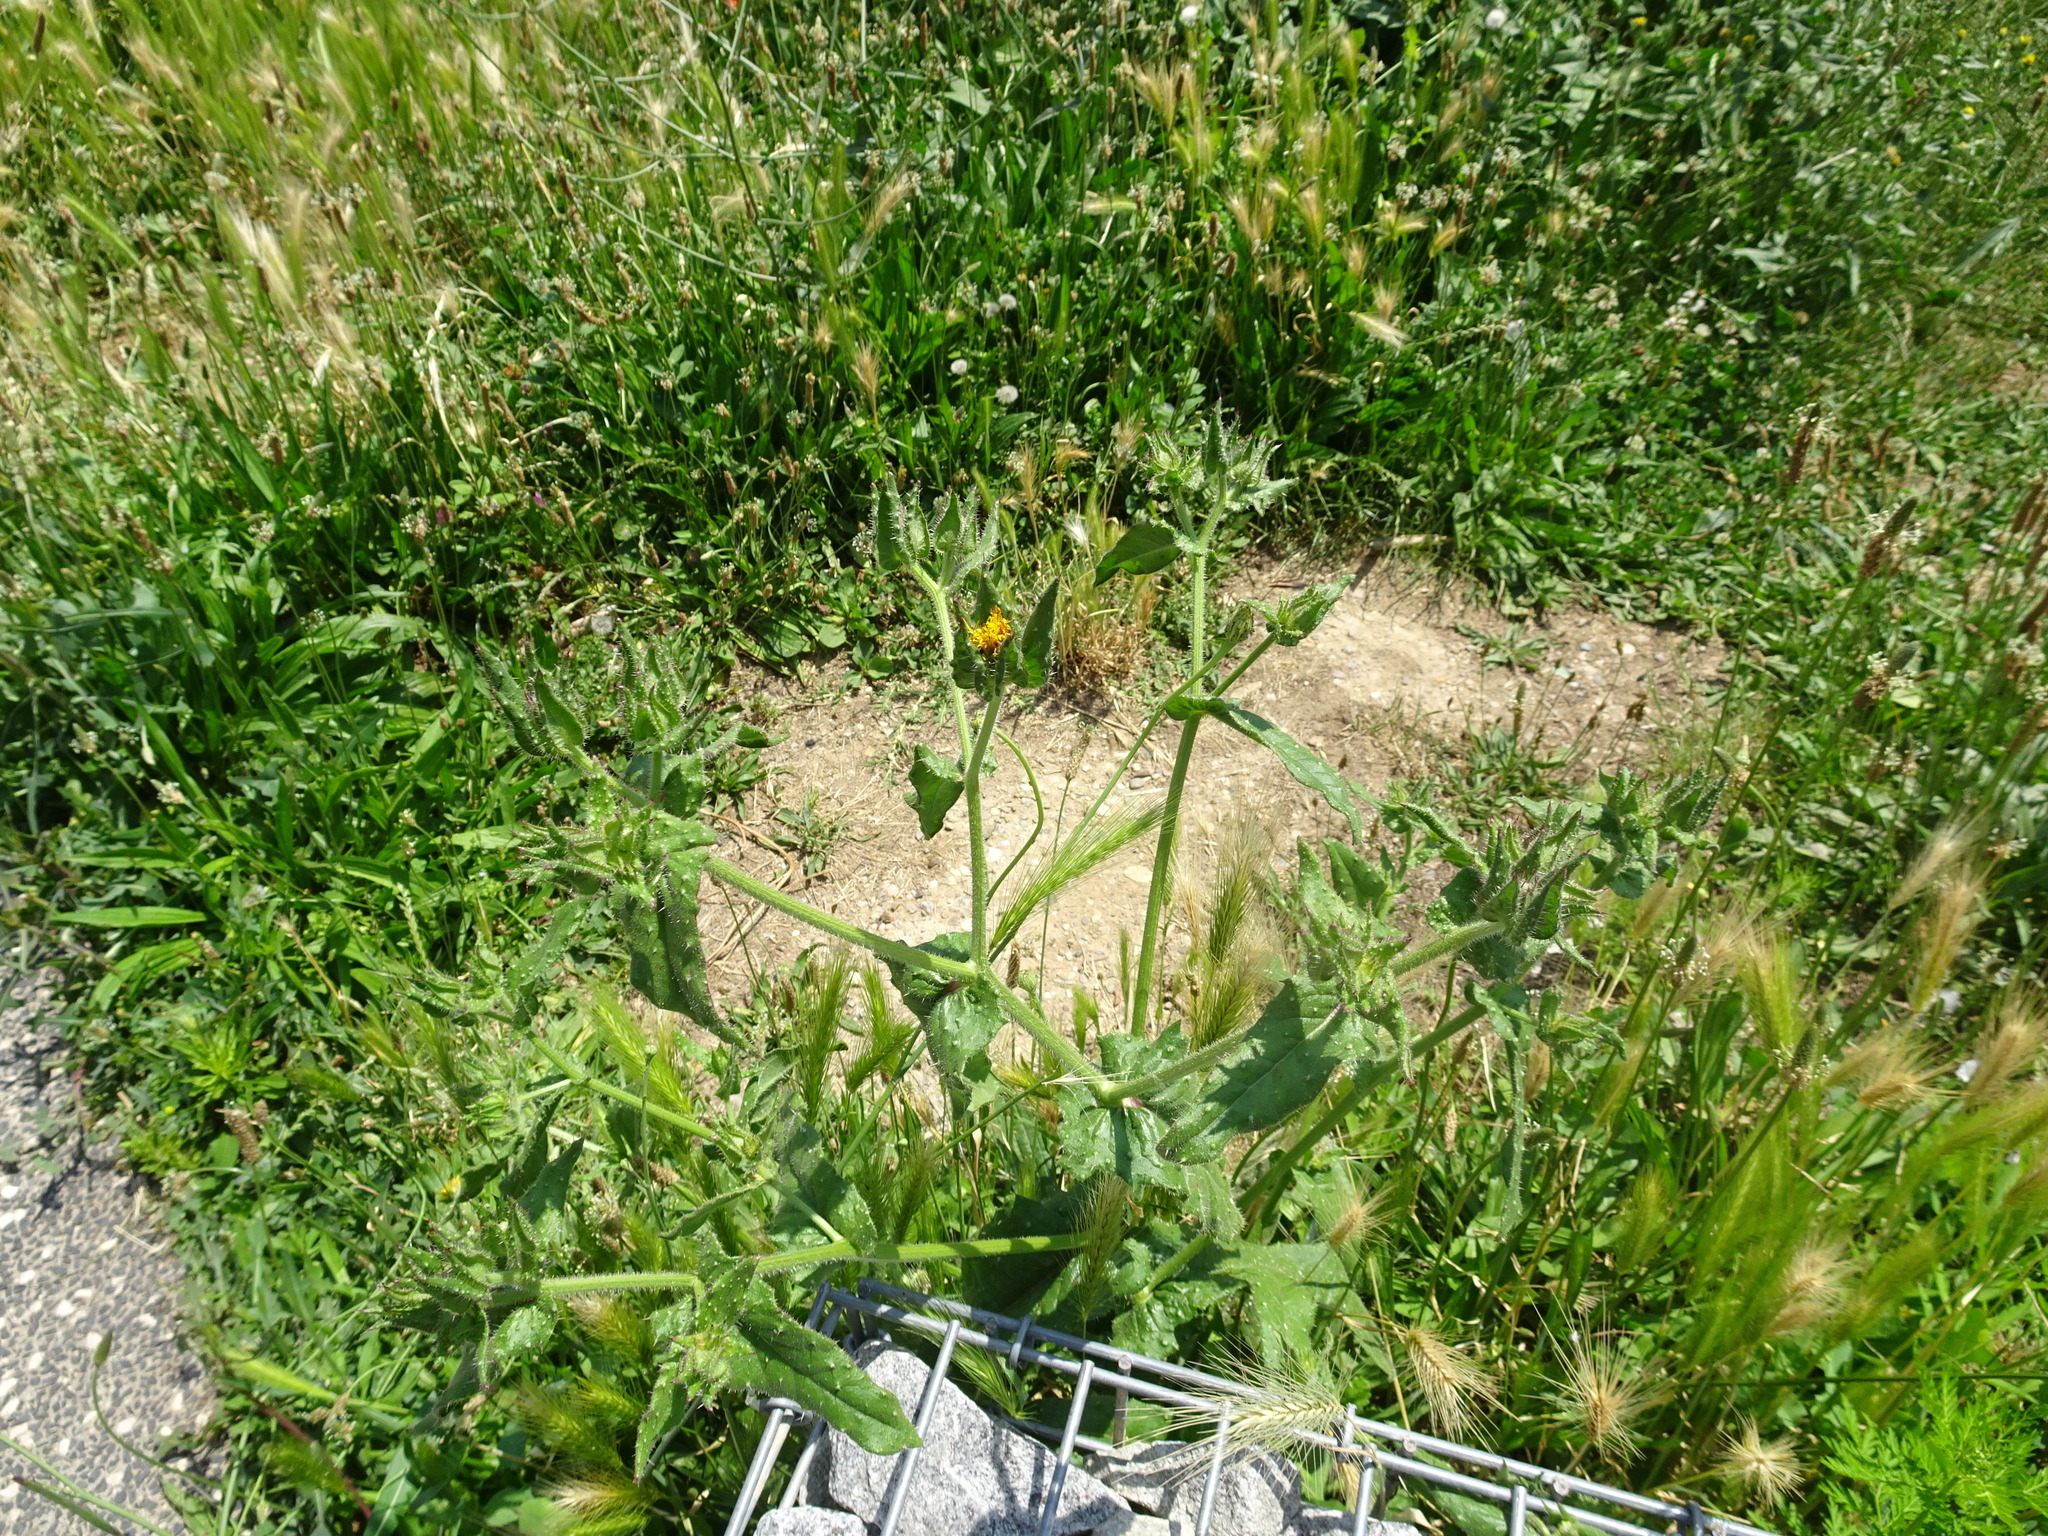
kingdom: Plantae
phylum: Tracheophyta
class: Magnoliopsida
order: Asterales
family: Asteraceae
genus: Helminthotheca
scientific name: Helminthotheca echioides
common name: Ox-tongue
